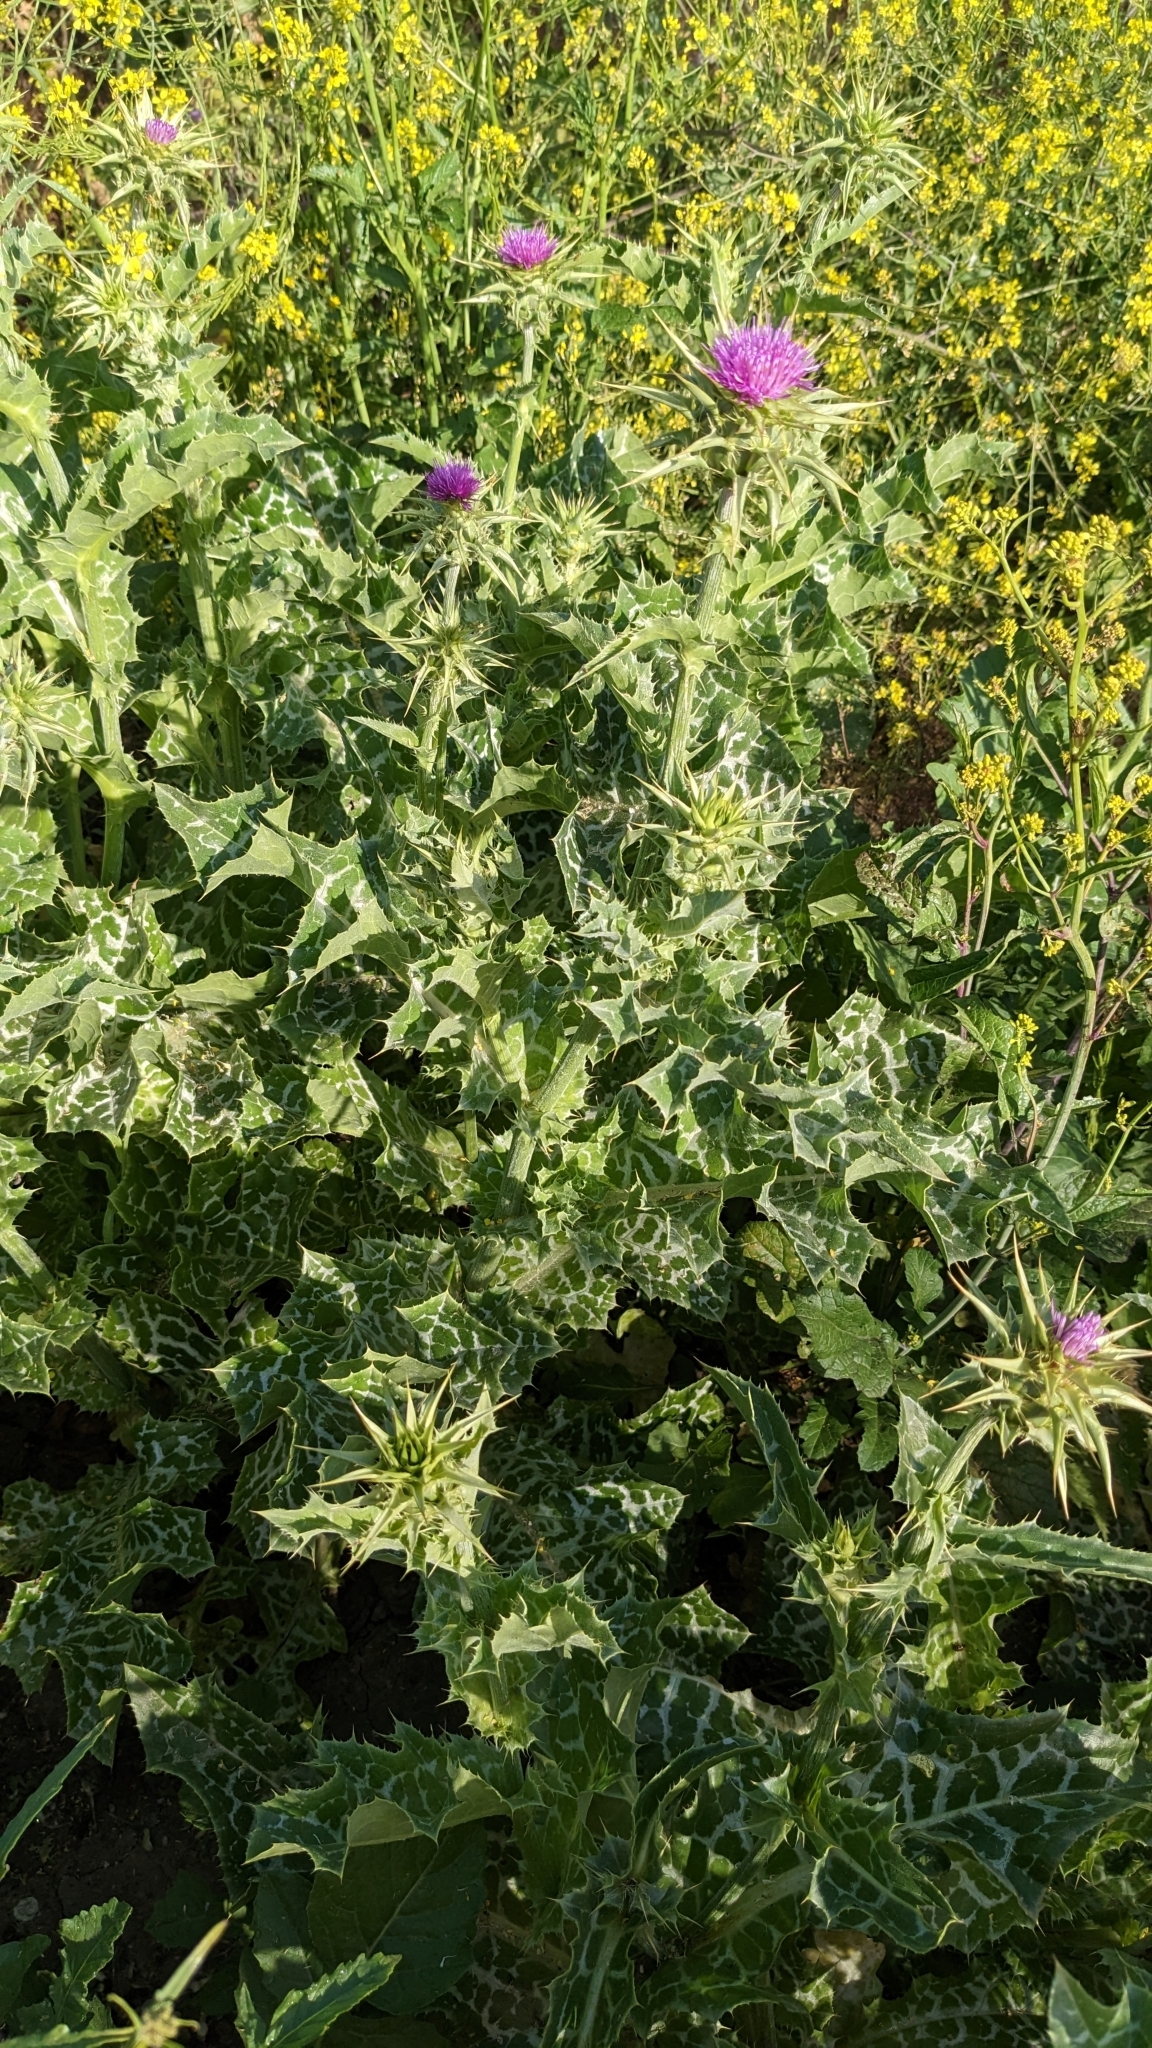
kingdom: Plantae
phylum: Tracheophyta
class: Magnoliopsida
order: Asterales
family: Asteraceae
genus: Silybum
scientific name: Silybum marianum
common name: Milk thistle
